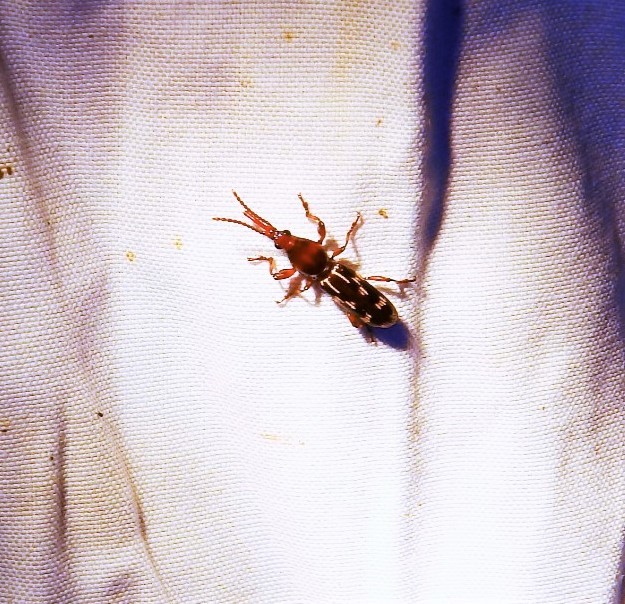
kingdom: Animalia
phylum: Arthropoda
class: Insecta
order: Coleoptera
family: Brentidae
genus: Arrenodes
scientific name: Arrenodes minutus
